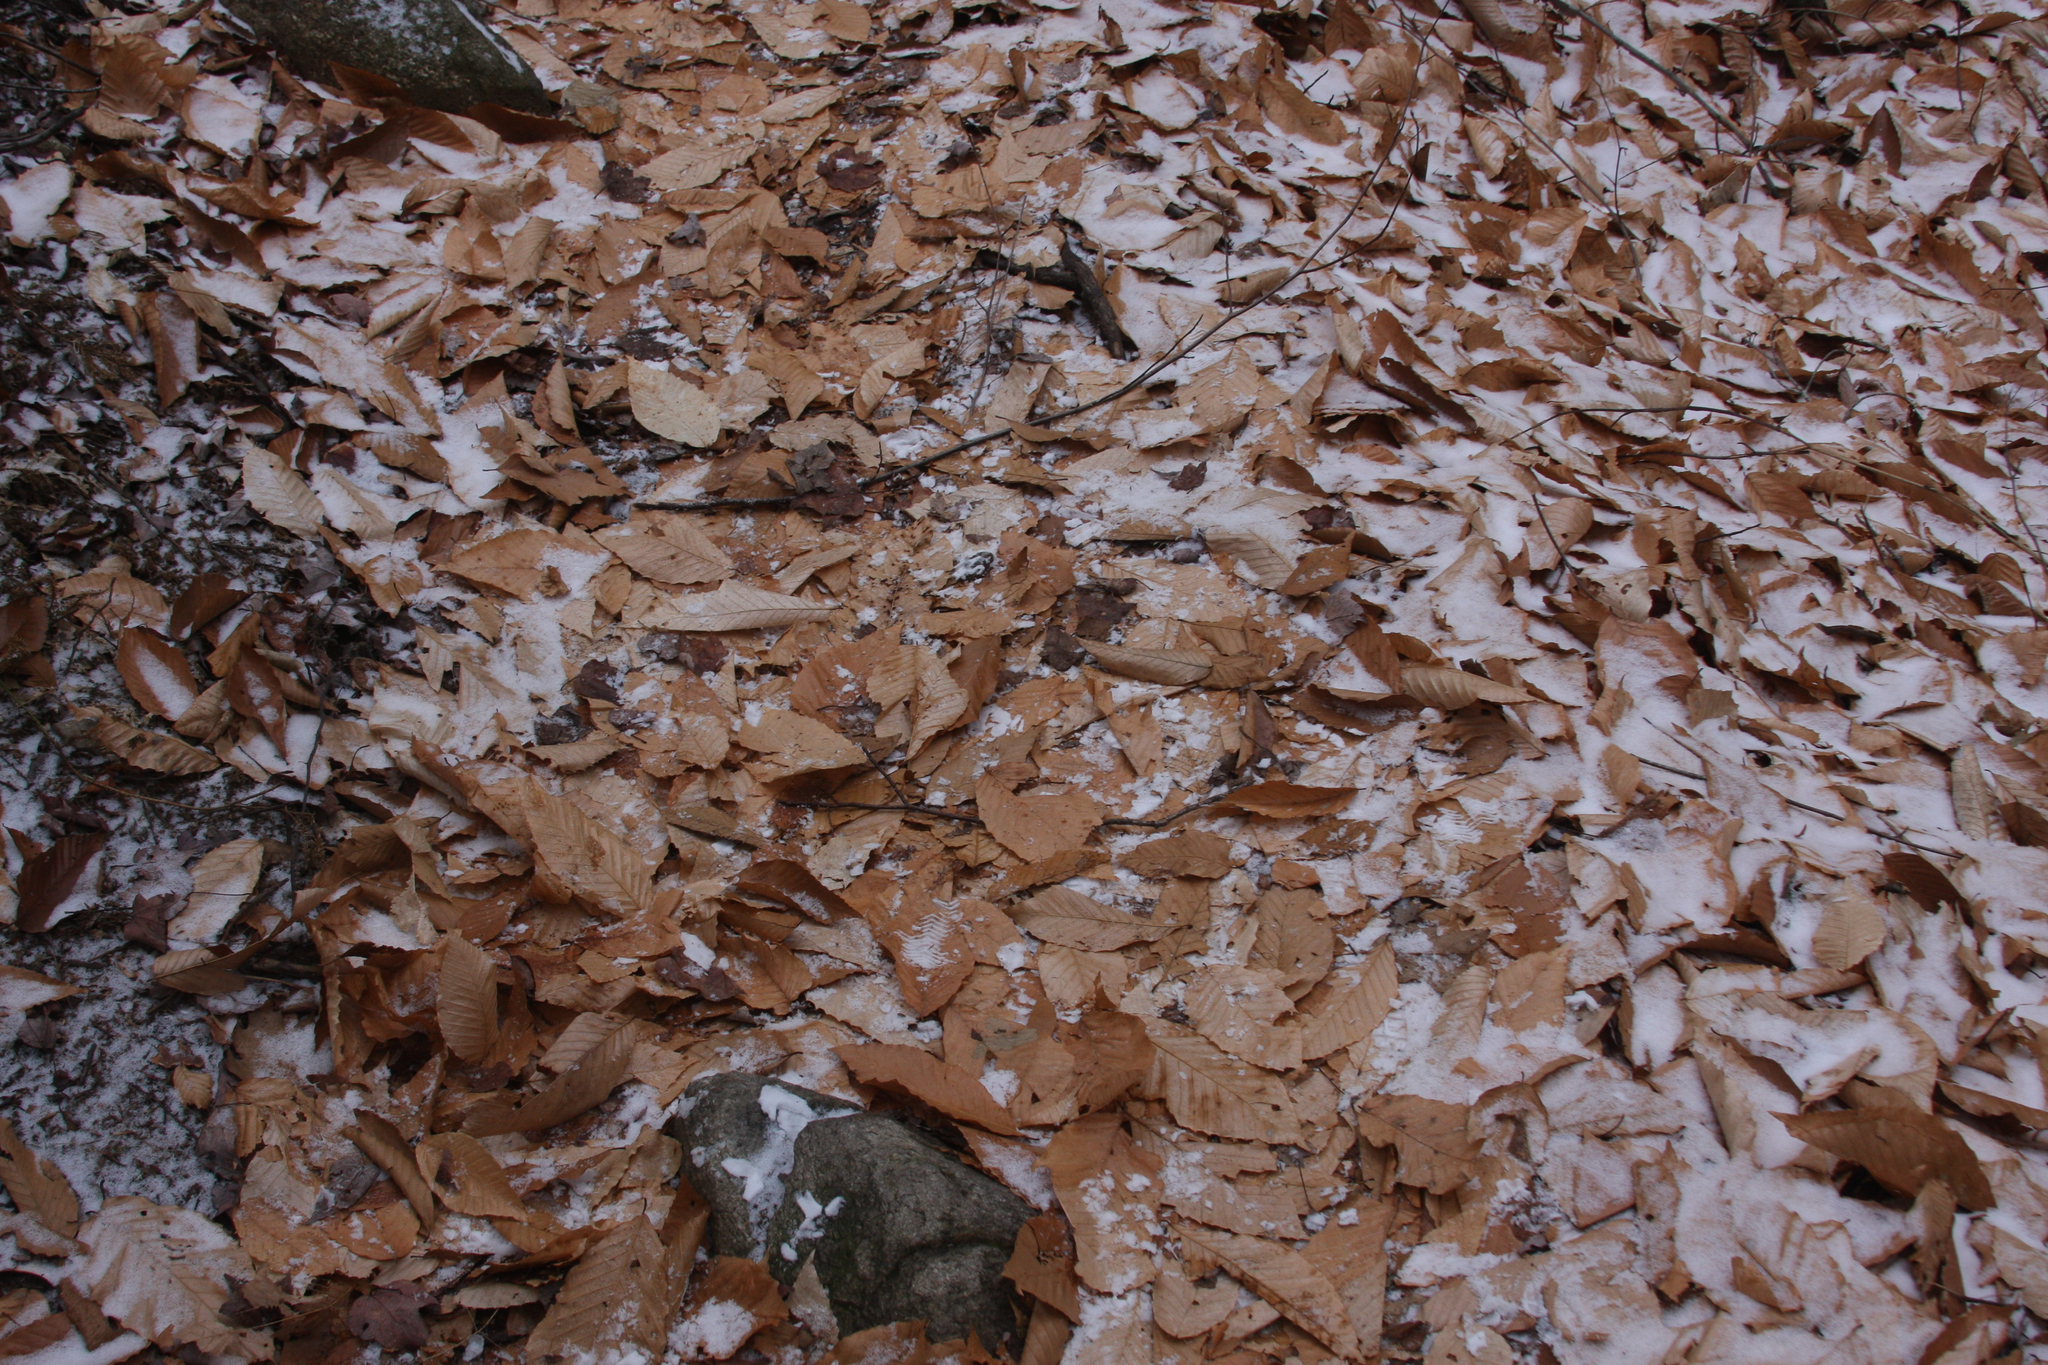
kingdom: Plantae
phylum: Tracheophyta
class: Magnoliopsida
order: Fagales
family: Fagaceae
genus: Fagus
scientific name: Fagus grandifolia
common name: American beech
